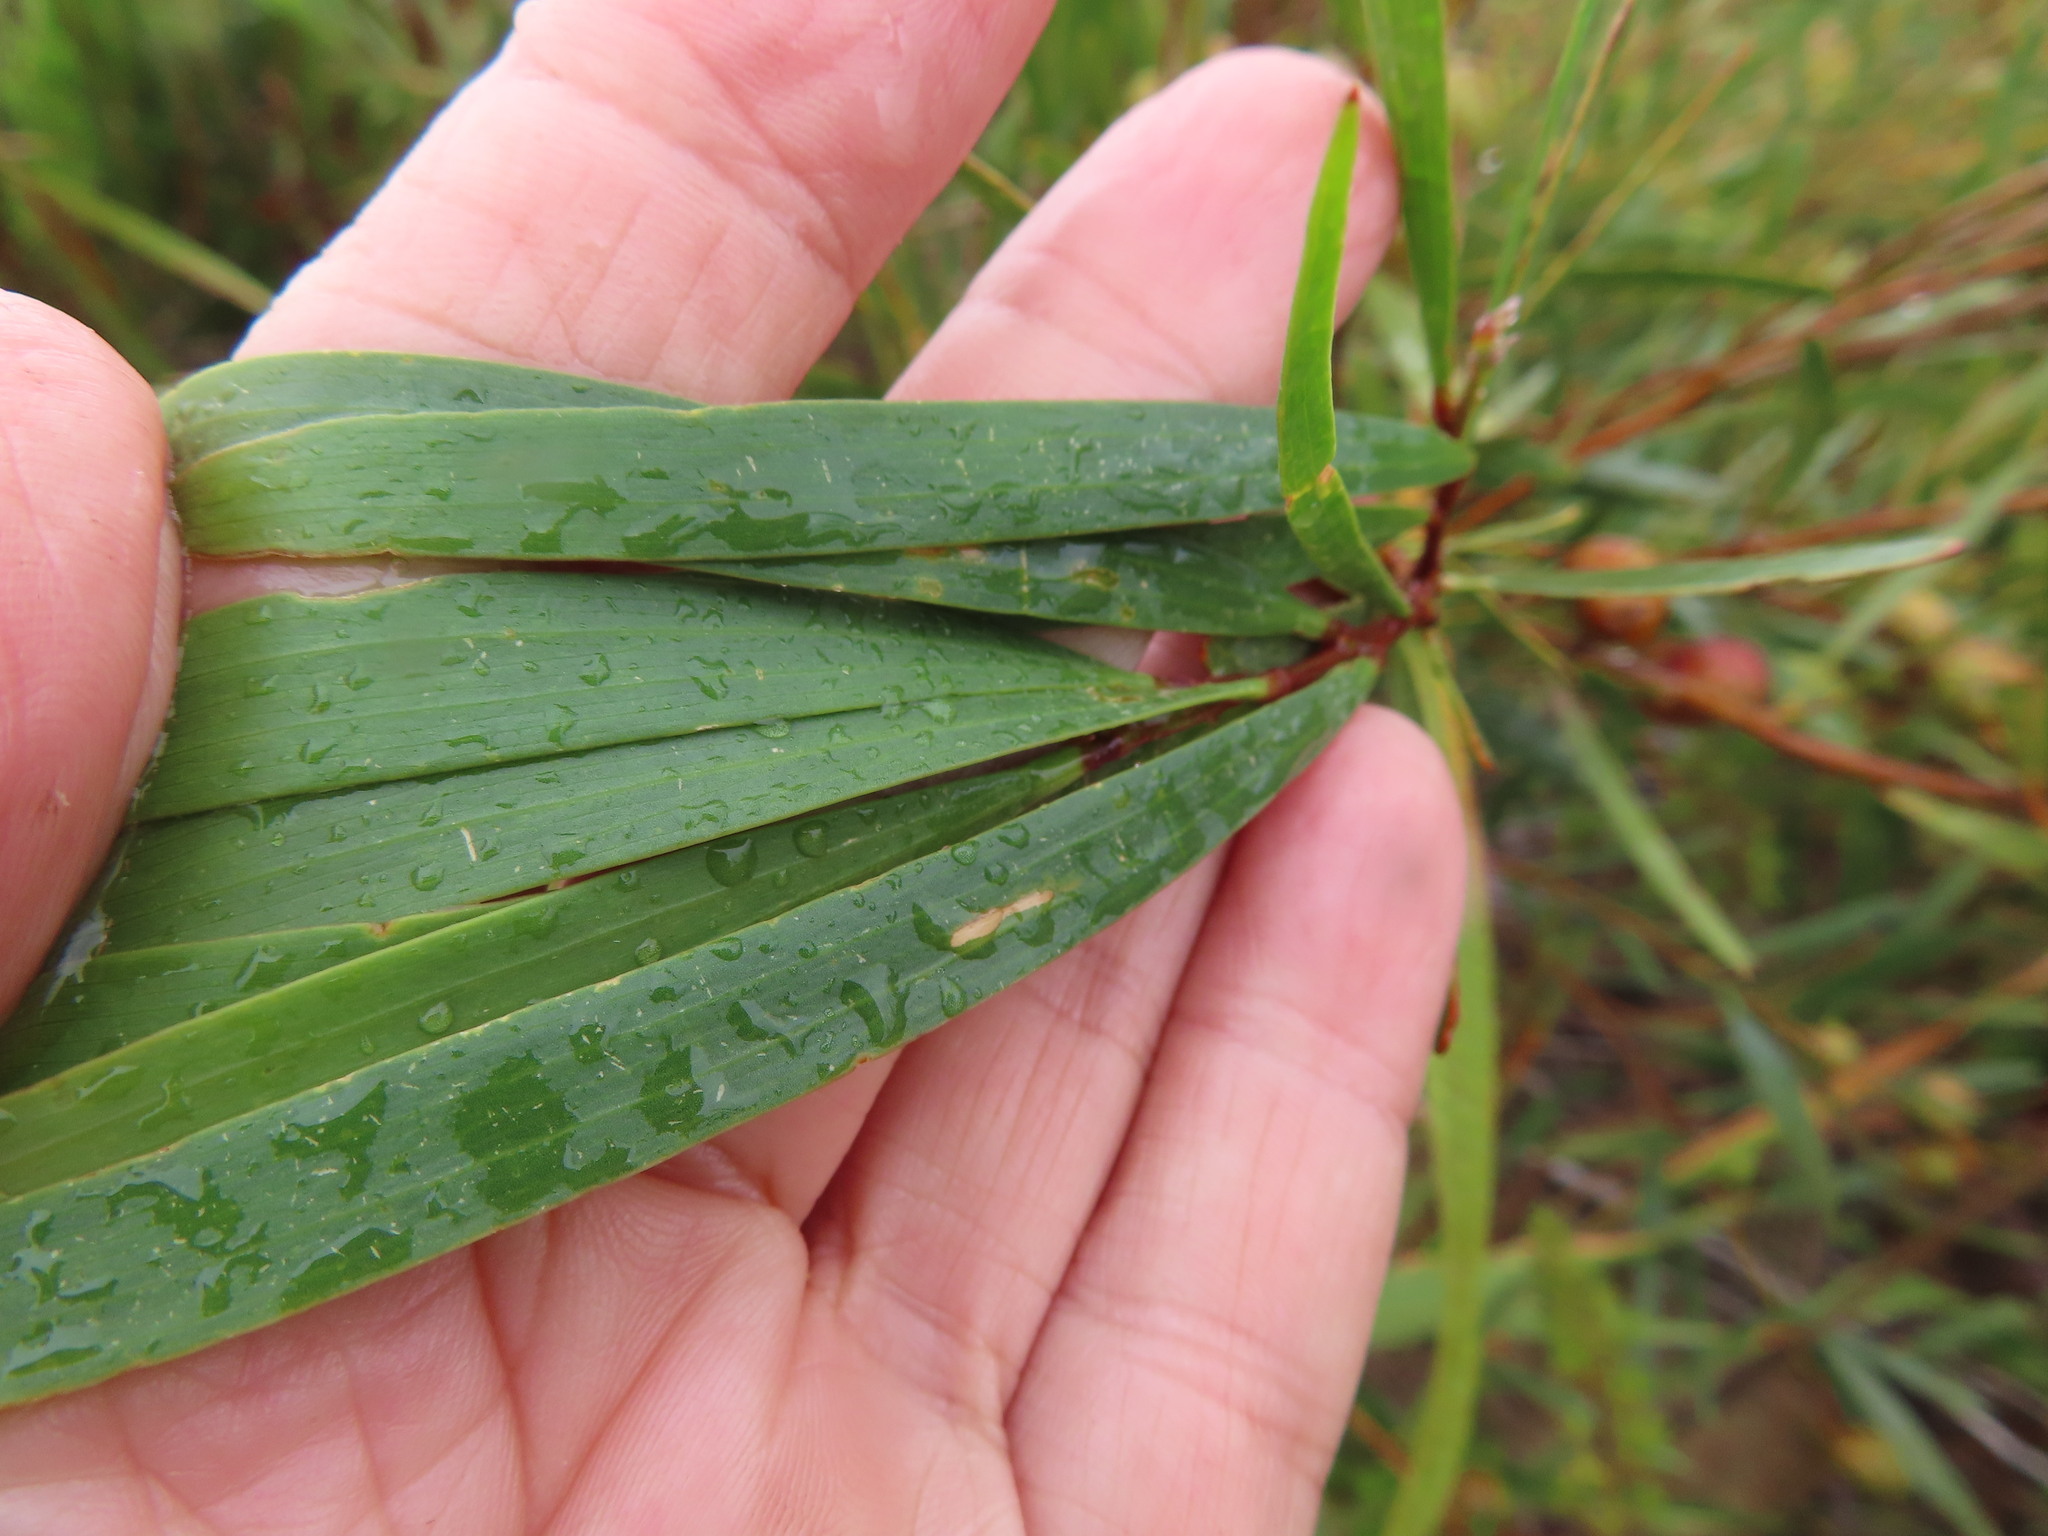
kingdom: Plantae
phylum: Tracheophyta
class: Magnoliopsida
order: Fabales
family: Fabaceae
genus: Acacia
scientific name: Acacia longifolia
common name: Sydney golden wattle
